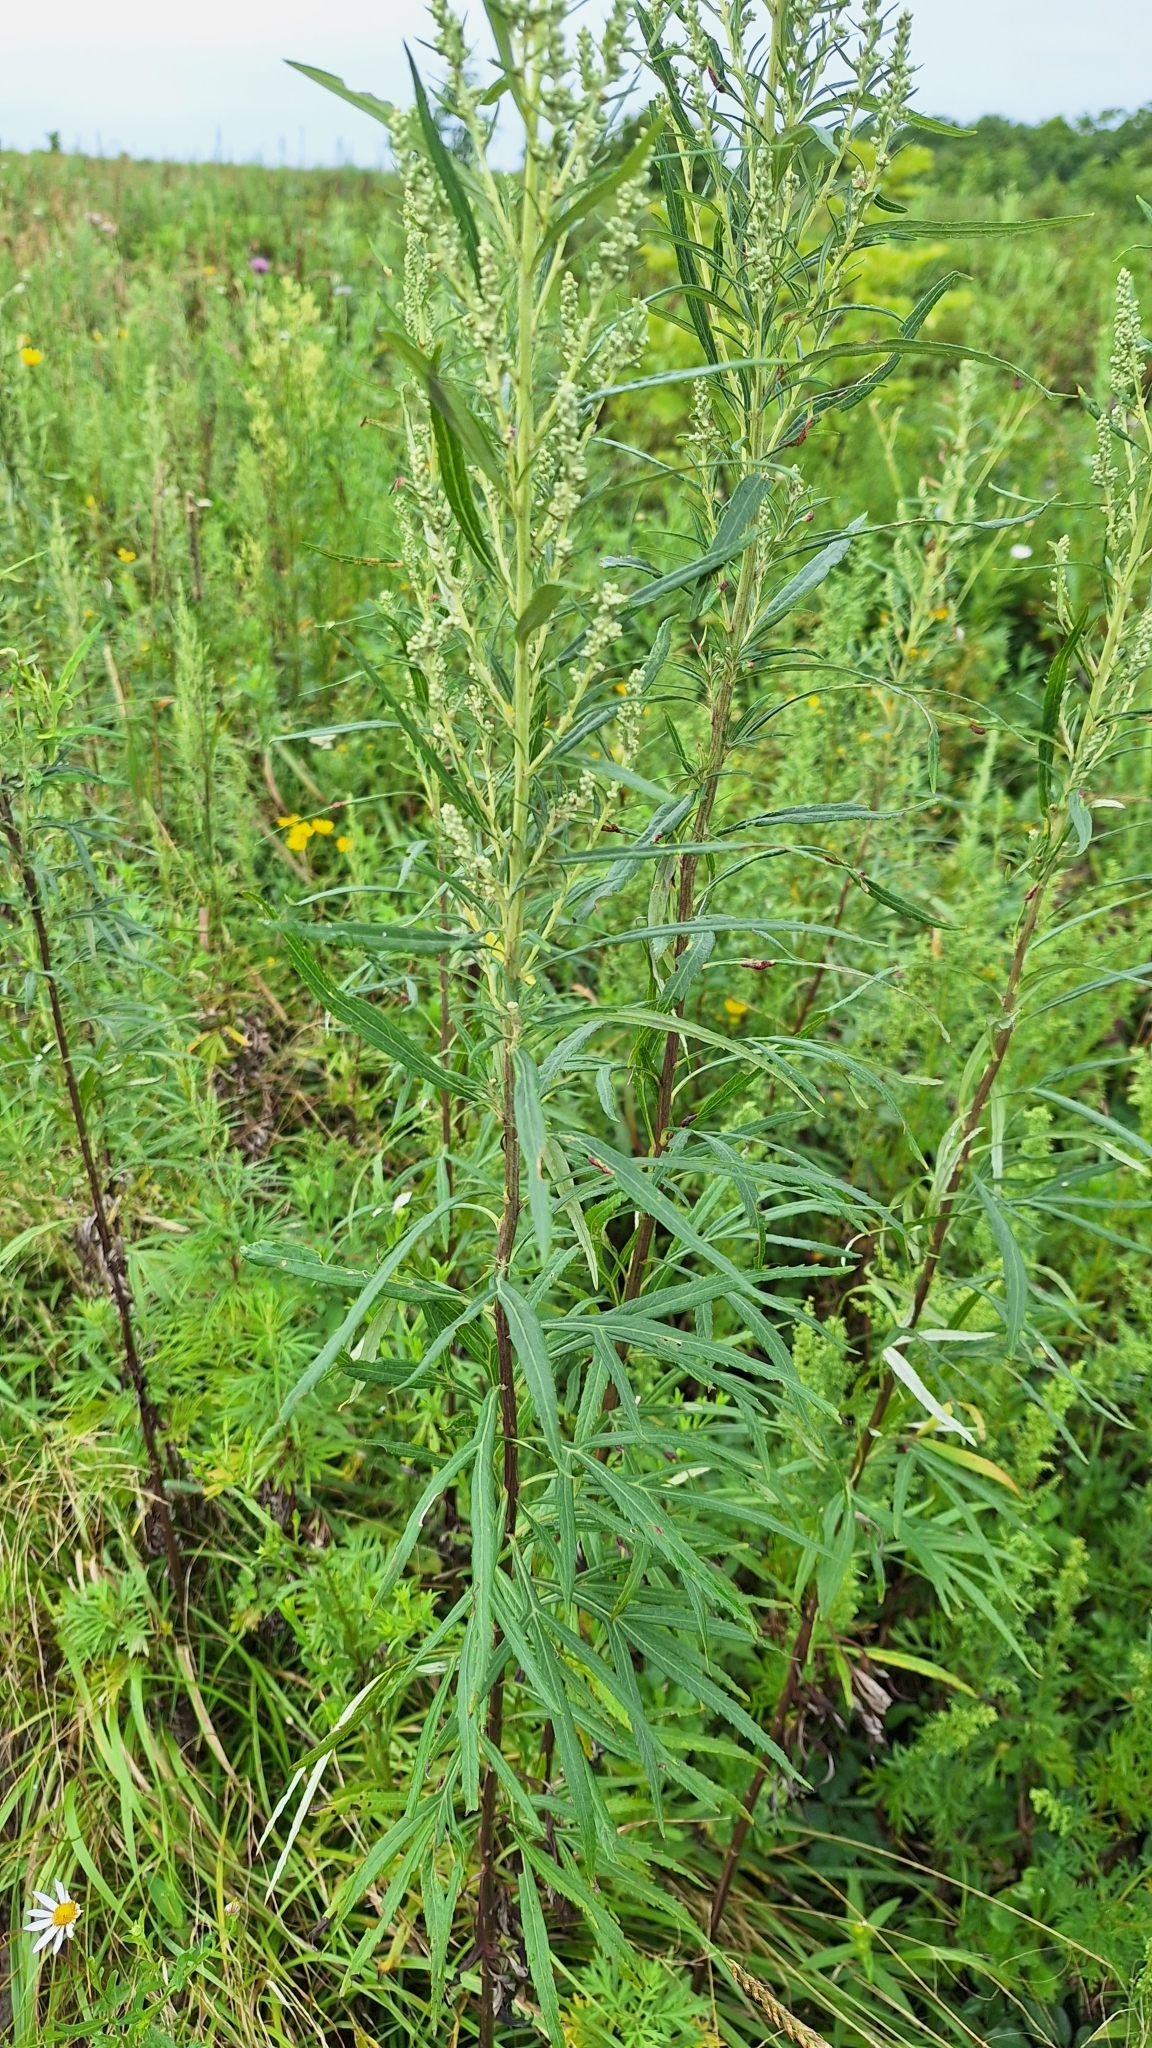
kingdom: Plantae
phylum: Tracheophyta
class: Magnoliopsida
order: Asterales
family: Asteraceae
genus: Artemisia
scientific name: Artemisia selengensis
